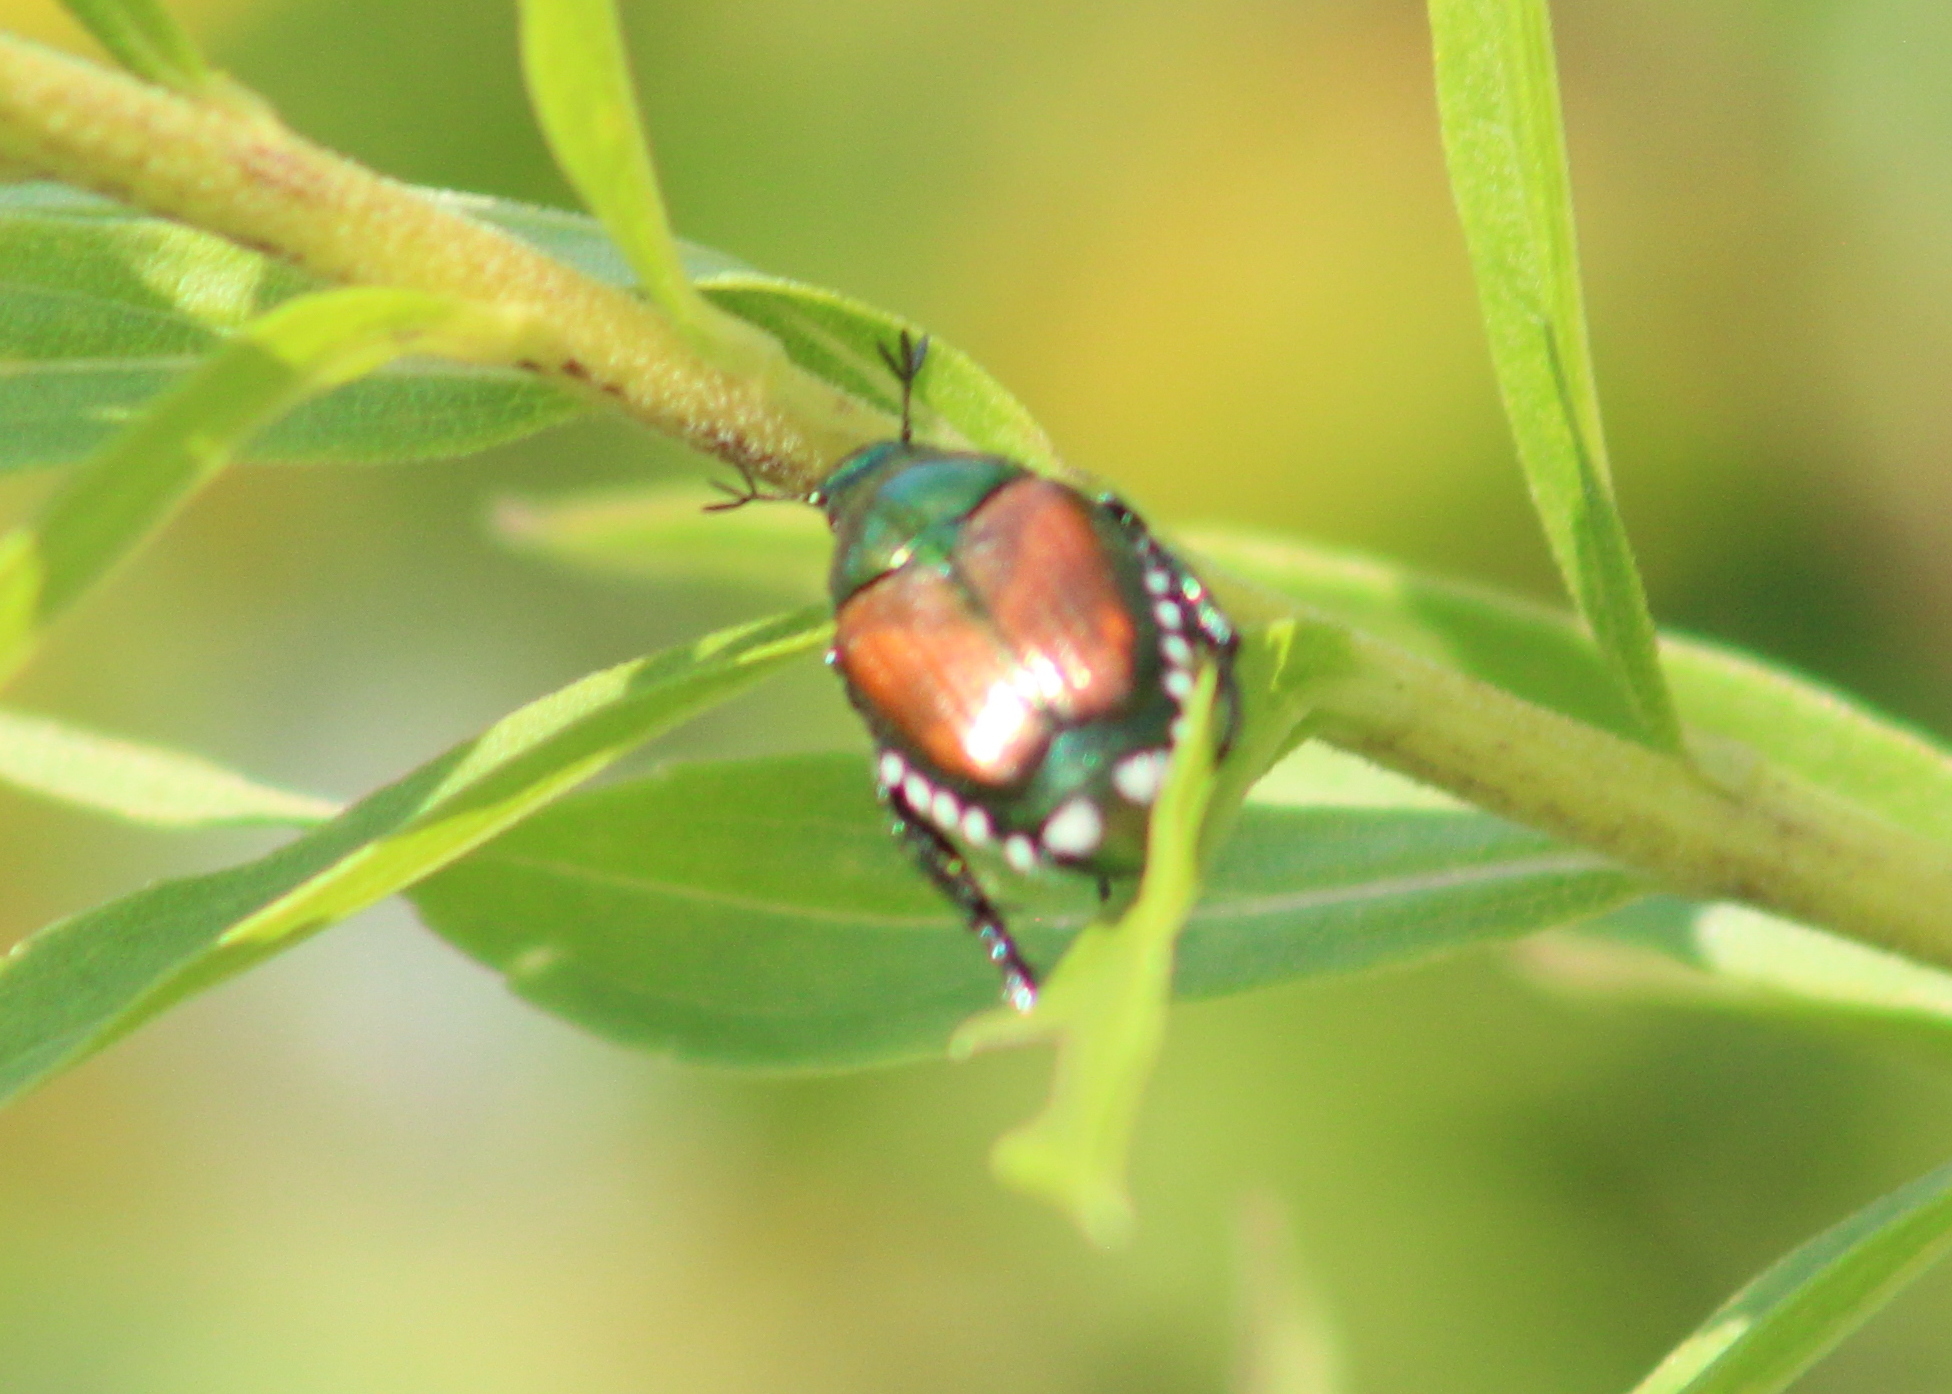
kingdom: Animalia
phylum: Arthropoda
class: Insecta
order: Coleoptera
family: Scarabaeidae
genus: Popillia
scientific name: Popillia japonica
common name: Japanese beetle
